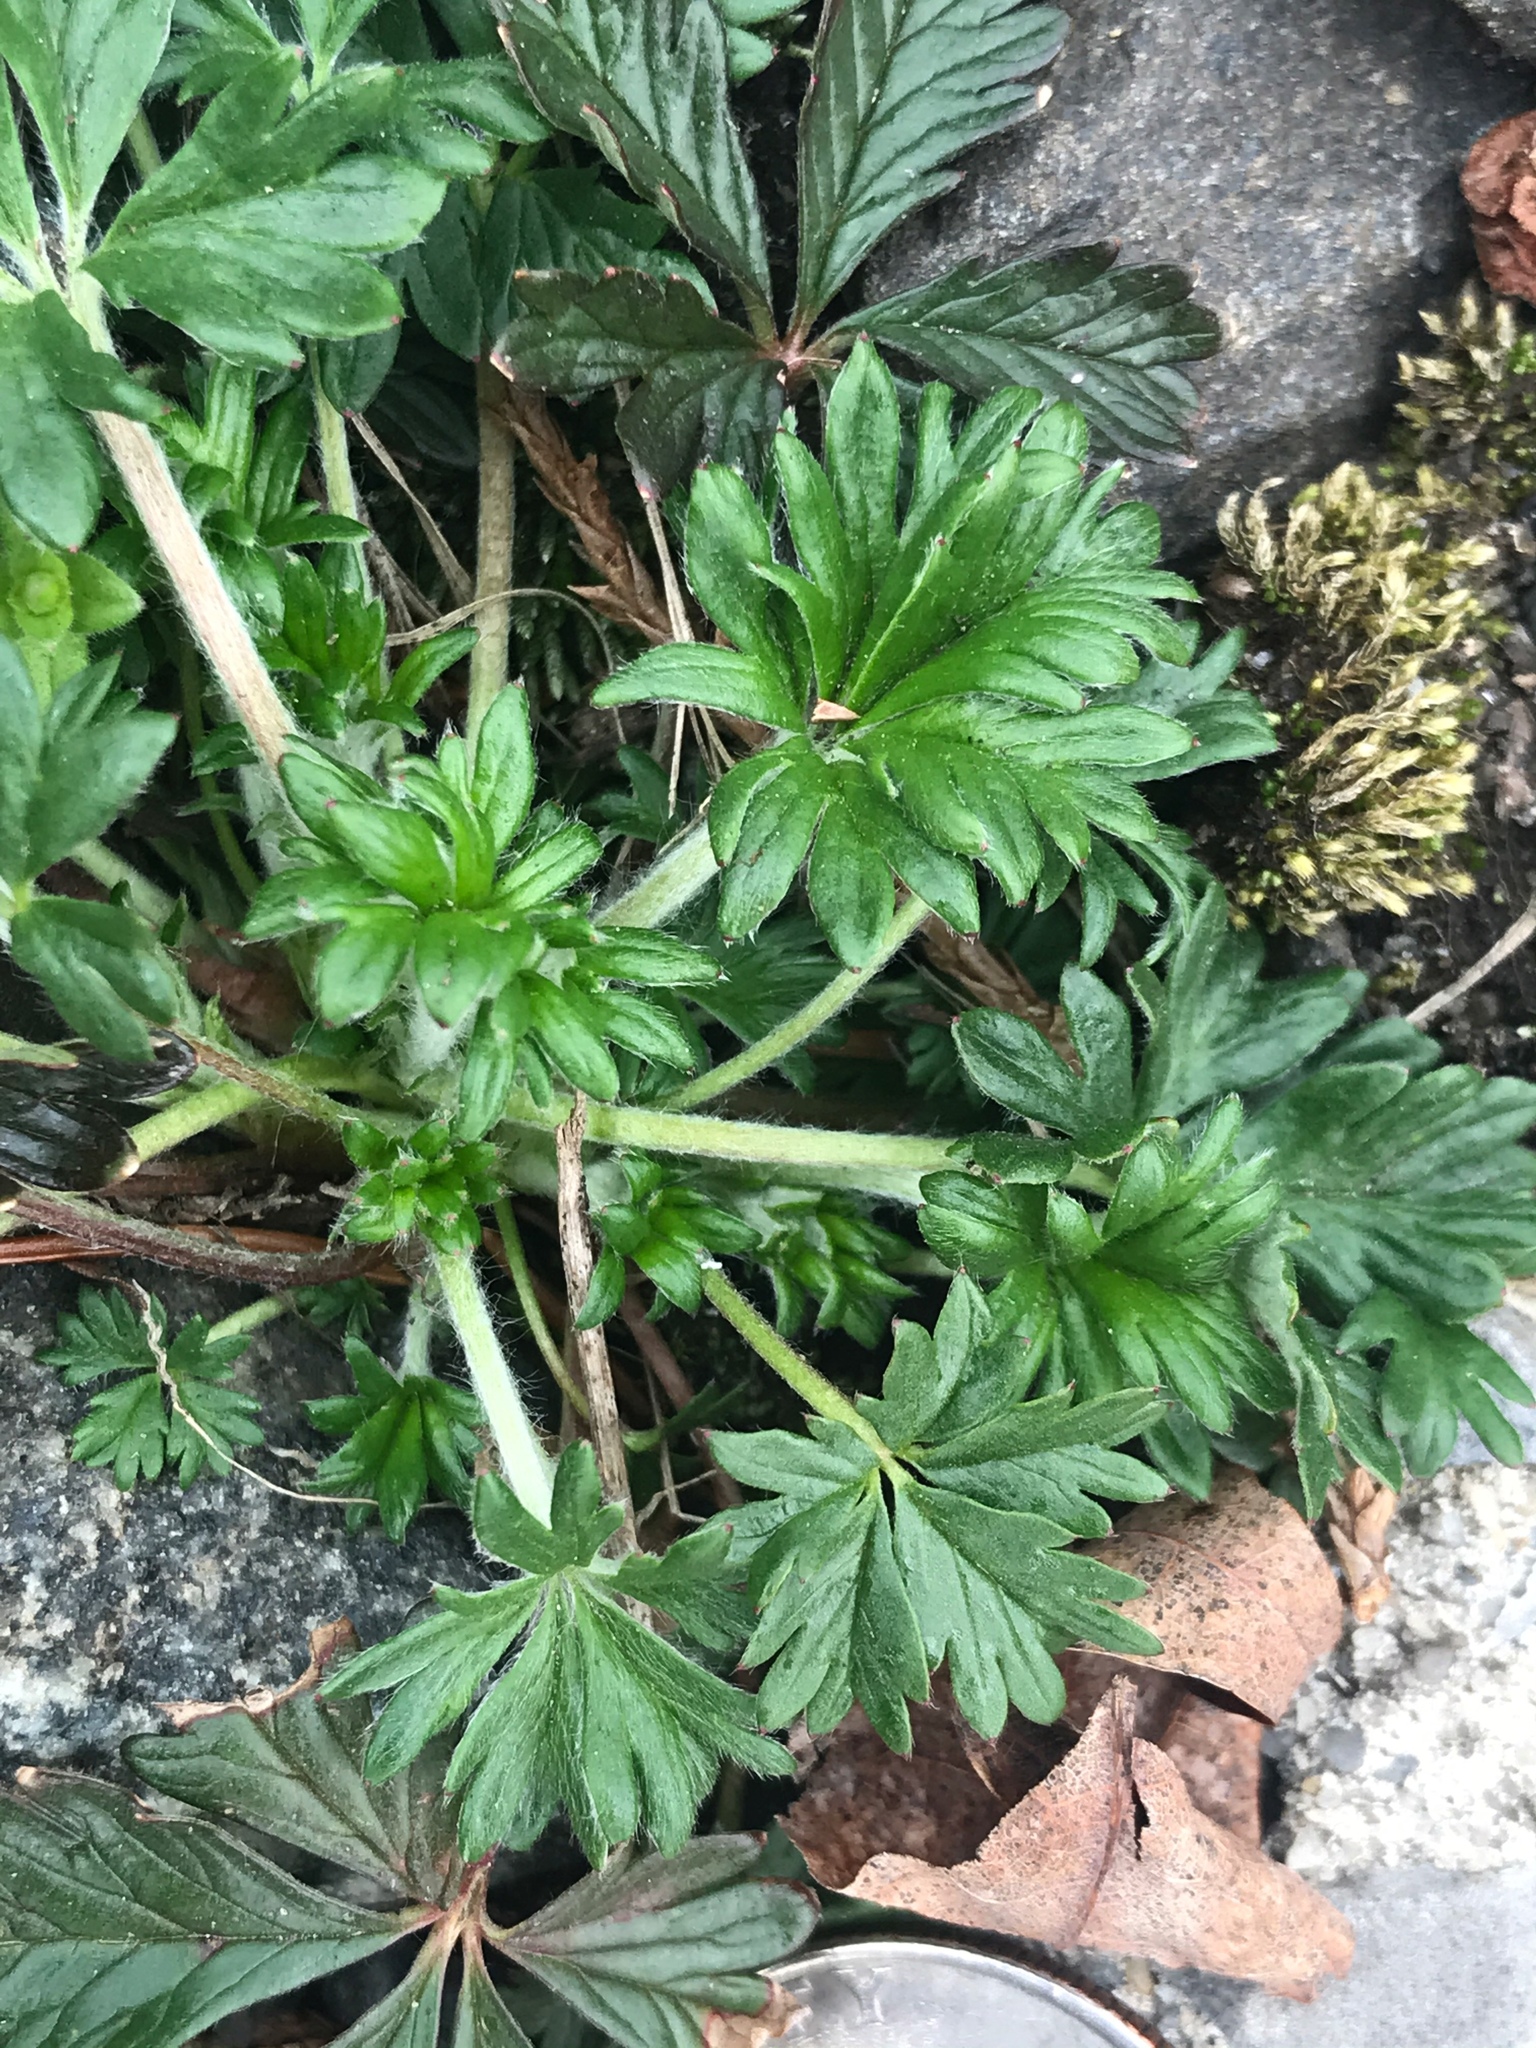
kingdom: Plantae
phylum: Tracheophyta
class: Magnoliopsida
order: Rosales
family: Rosaceae
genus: Potentilla
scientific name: Potentilla argentea
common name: Hoary cinquefoil
